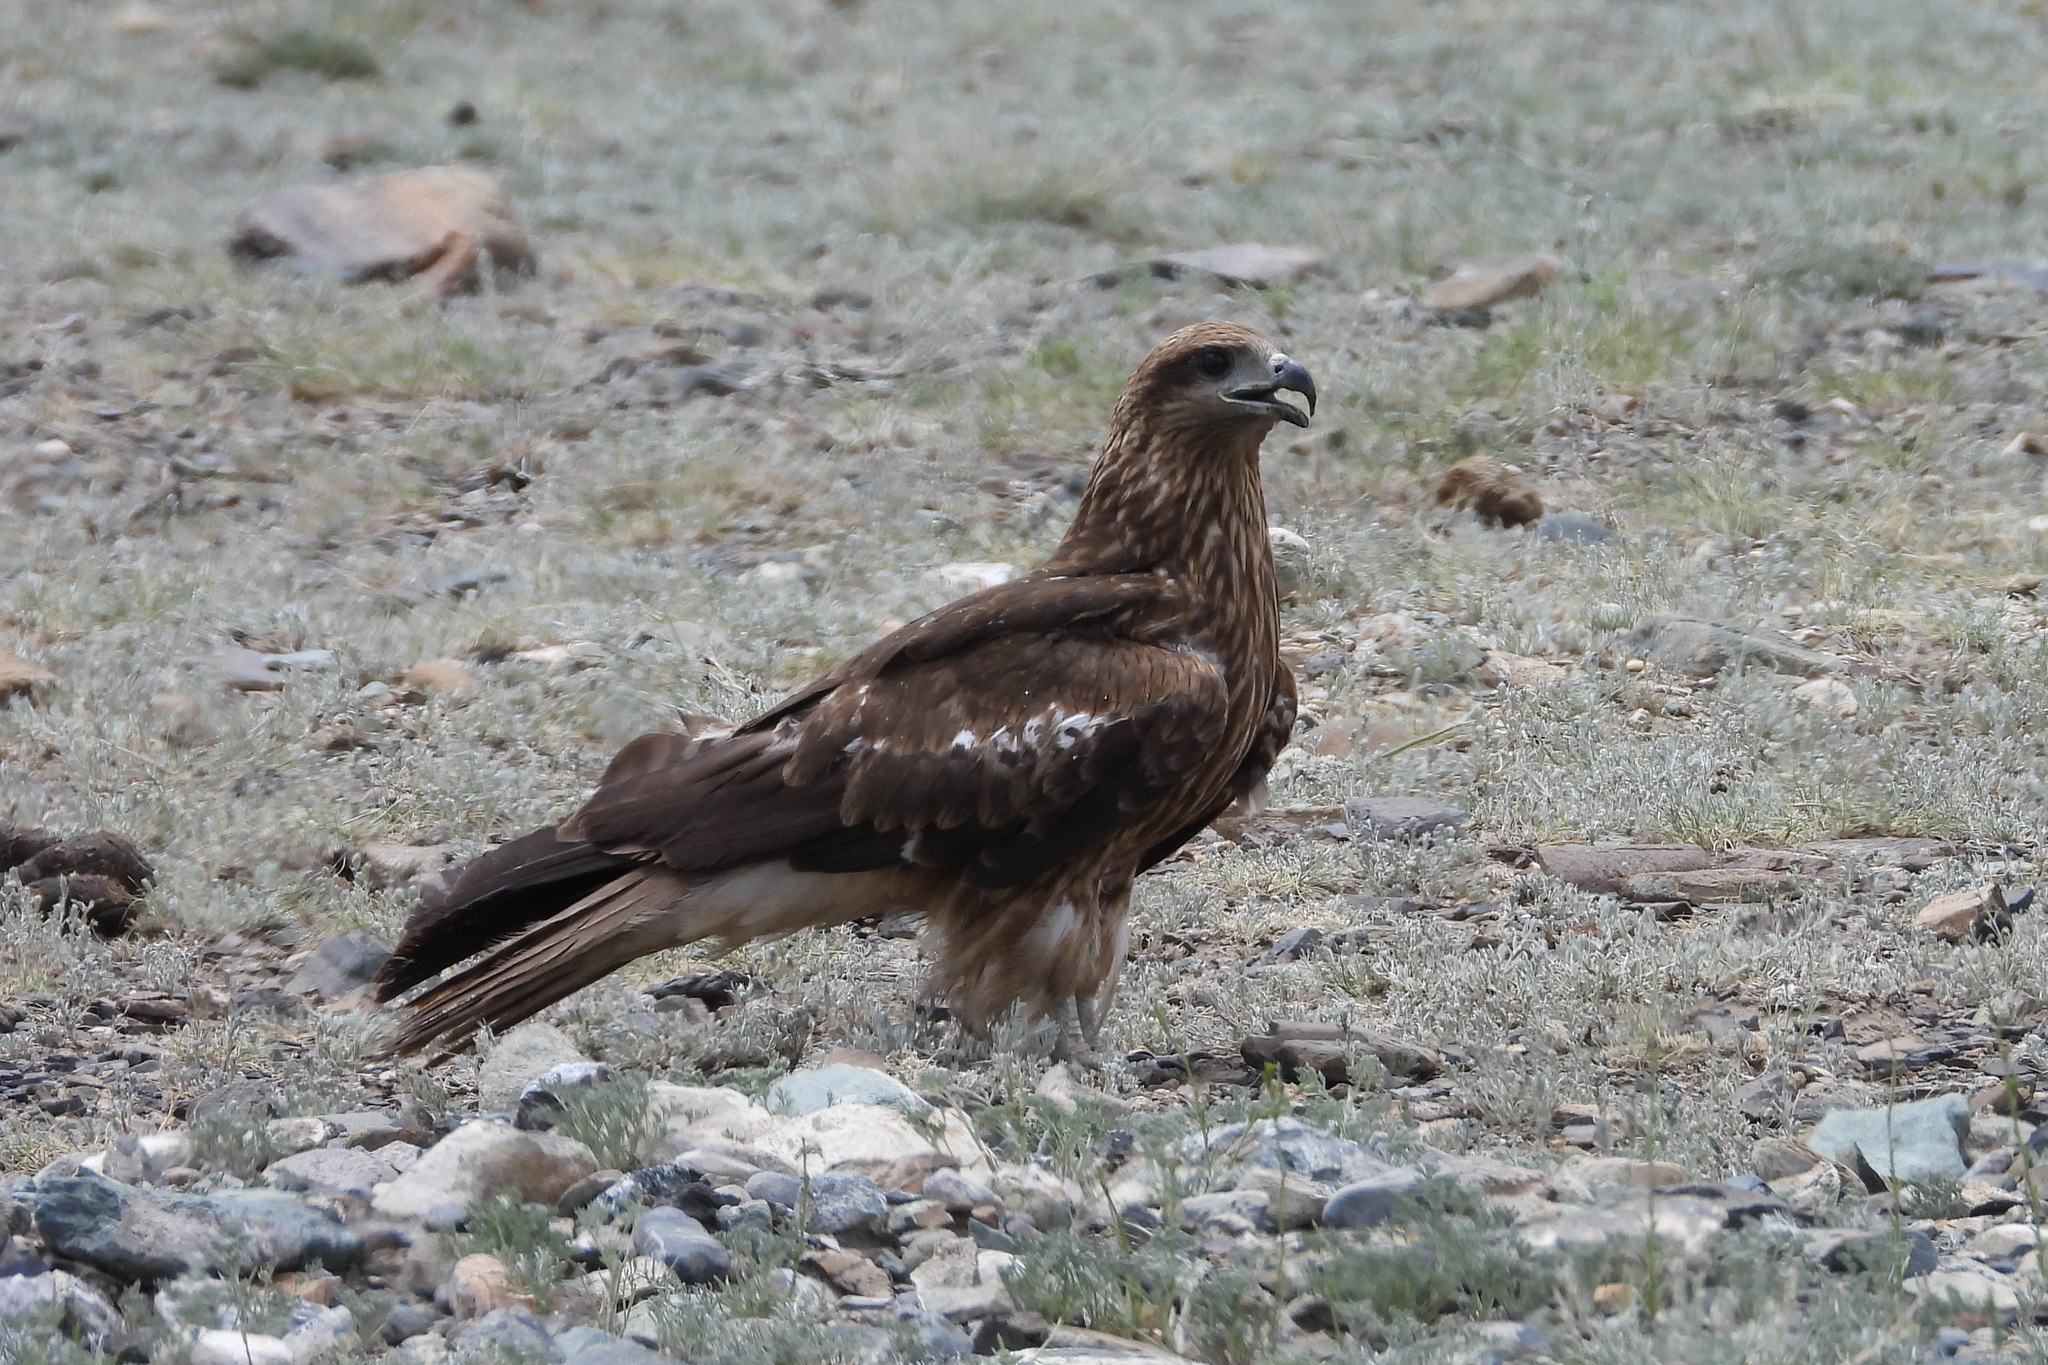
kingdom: Animalia
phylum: Chordata
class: Aves
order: Accipitriformes
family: Accipitridae
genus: Milvus
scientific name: Milvus migrans
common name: Black kite
